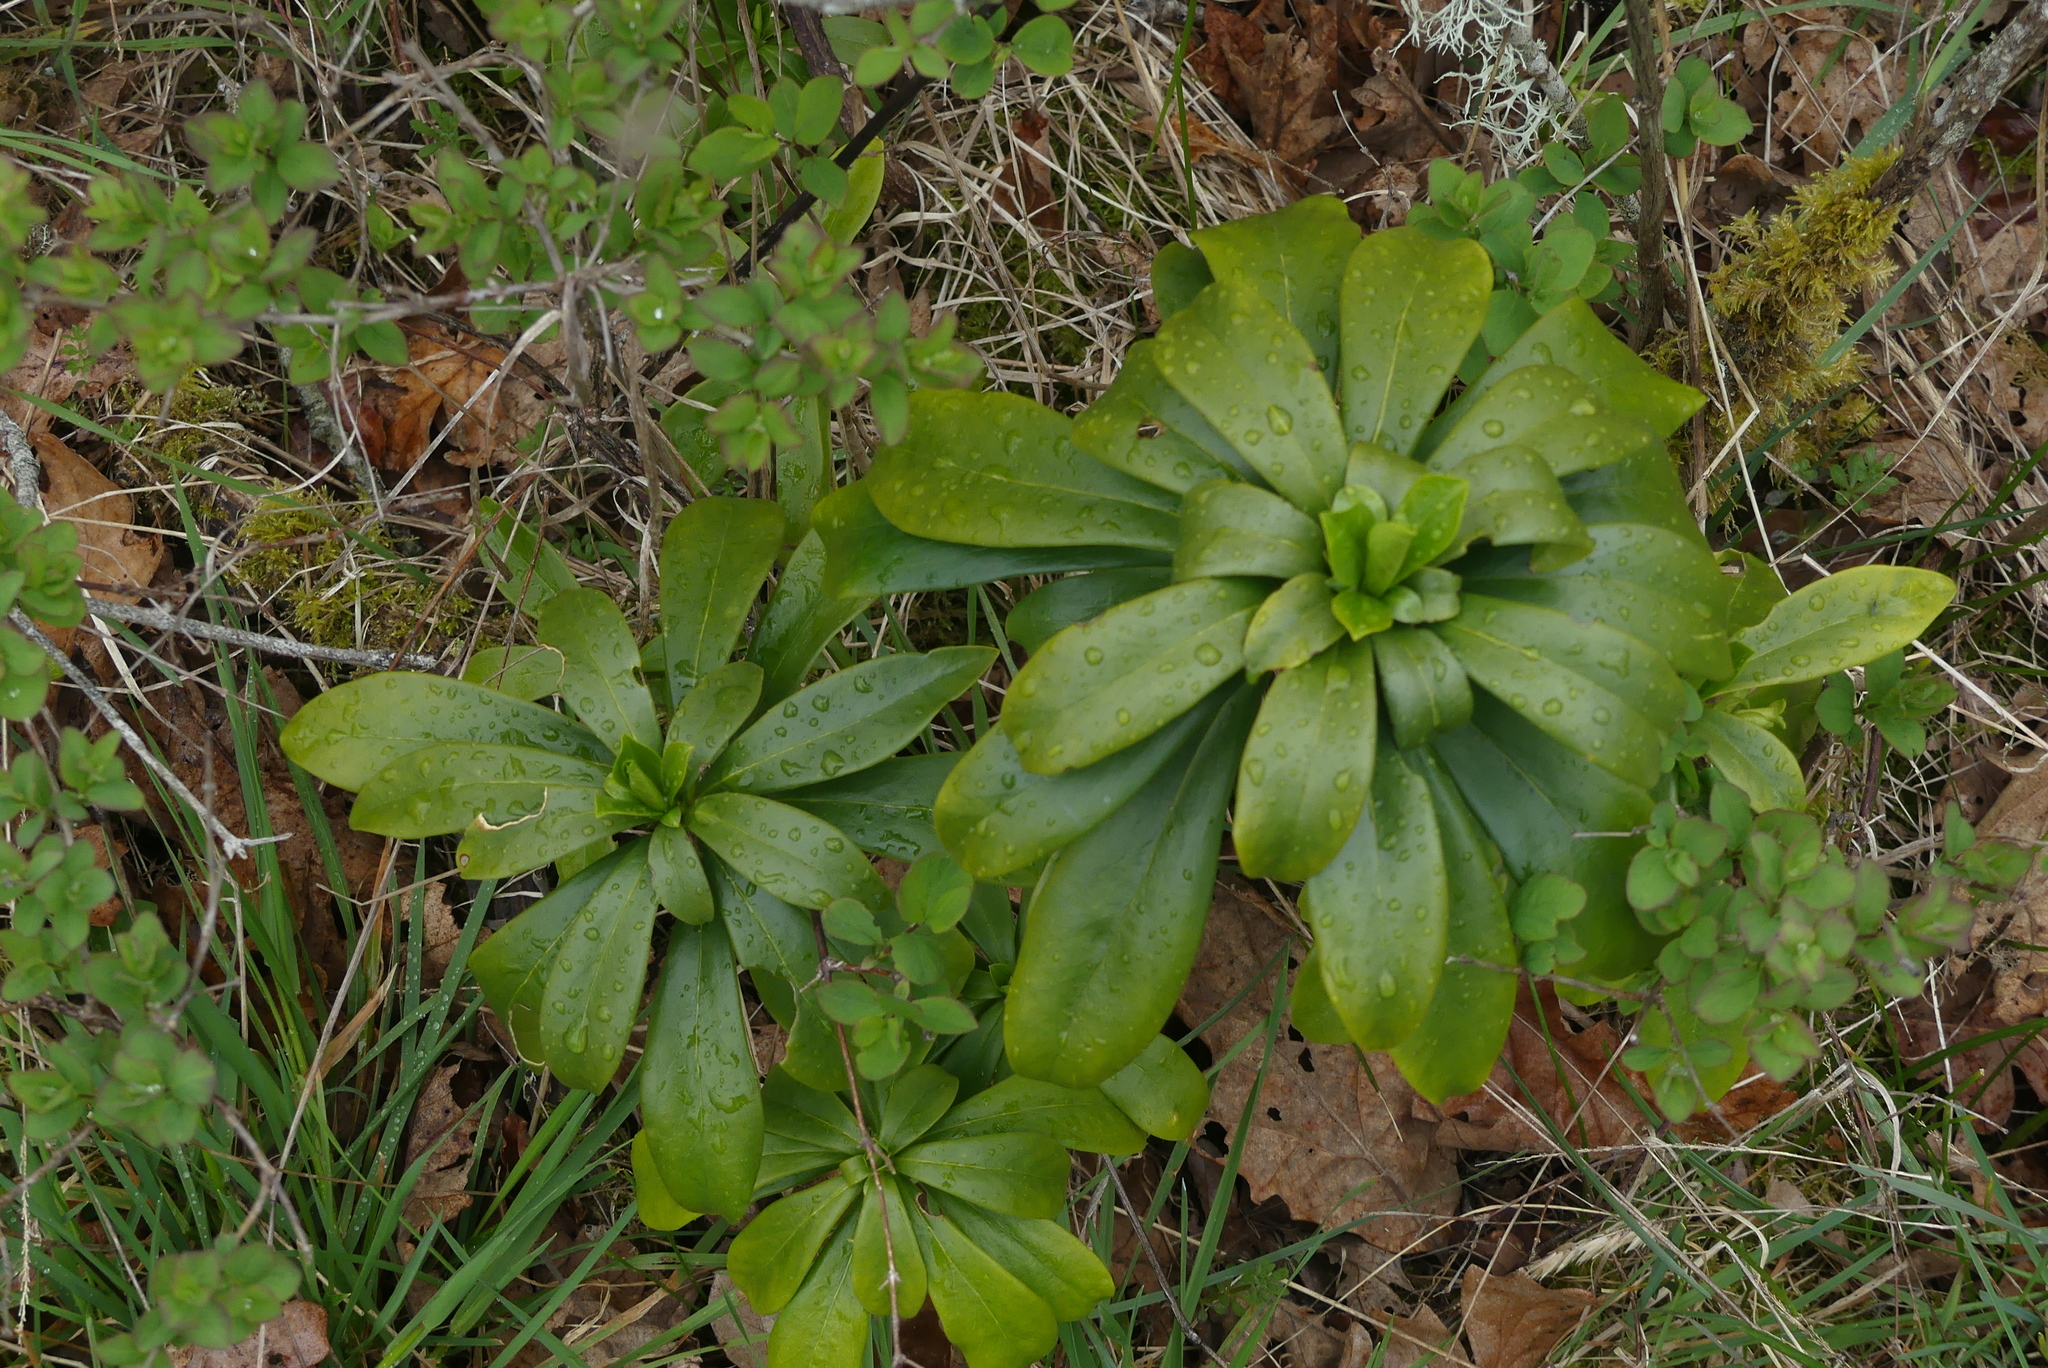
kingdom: Plantae
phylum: Tracheophyta
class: Magnoliopsida
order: Malvales
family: Thymelaeaceae
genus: Daphne
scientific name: Daphne laureola
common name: Spurge-laurel
